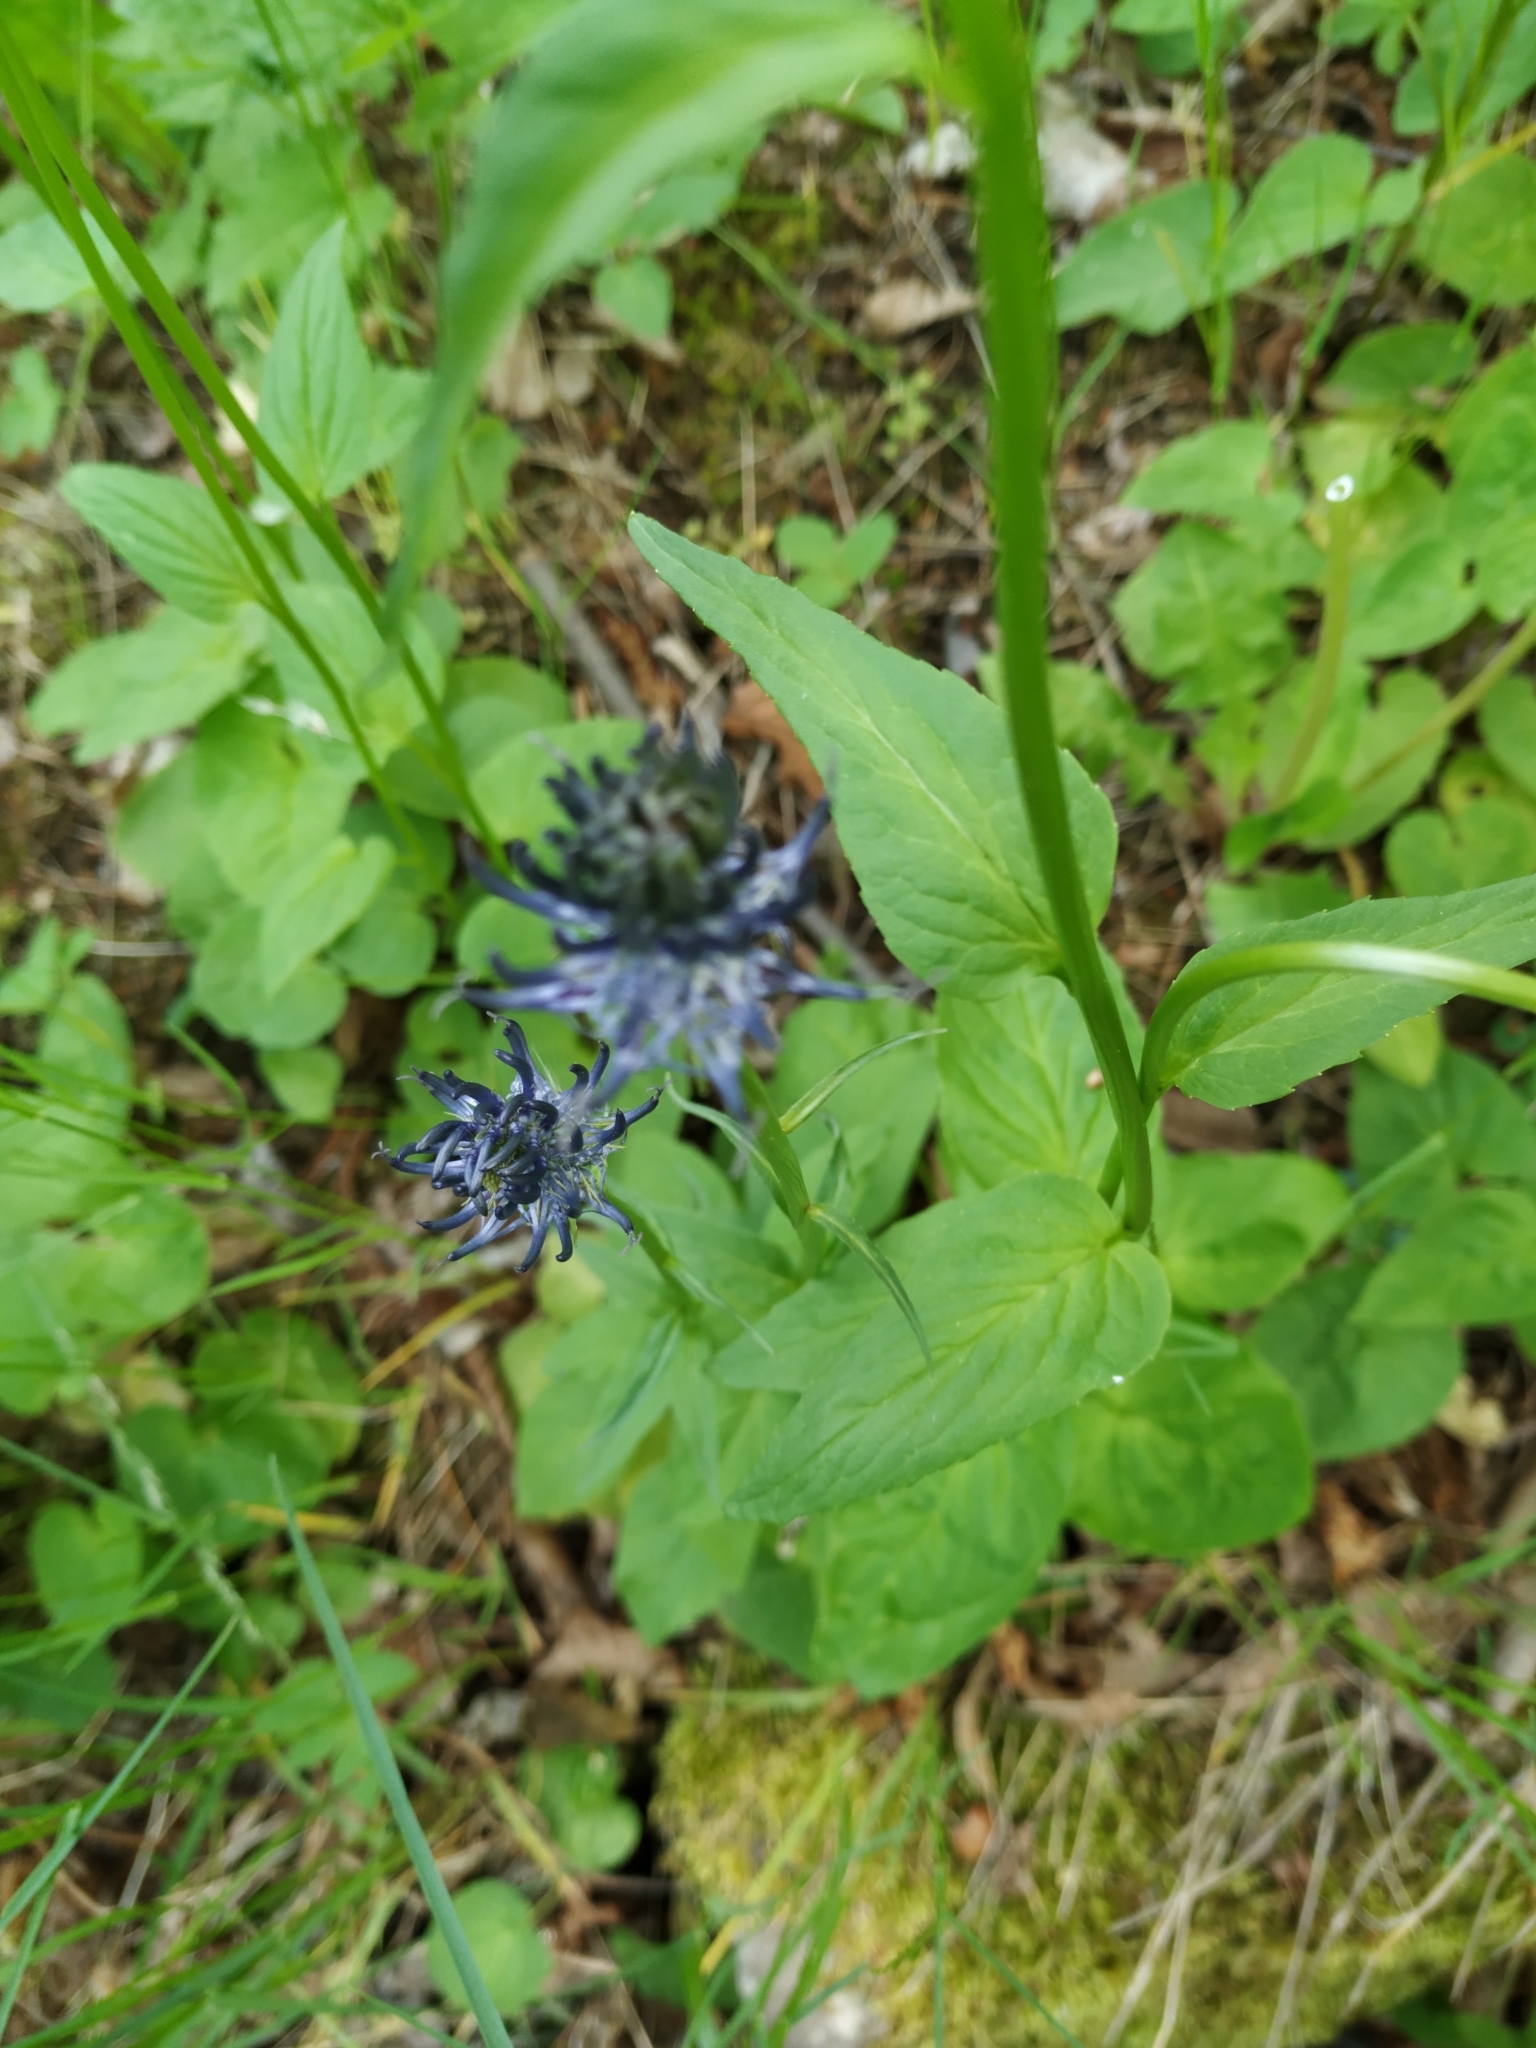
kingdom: Plantae
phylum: Tracheophyta
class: Magnoliopsida
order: Asterales
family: Campanulaceae
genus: Phyteuma
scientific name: Phyteuma nigrum
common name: Black rampion
